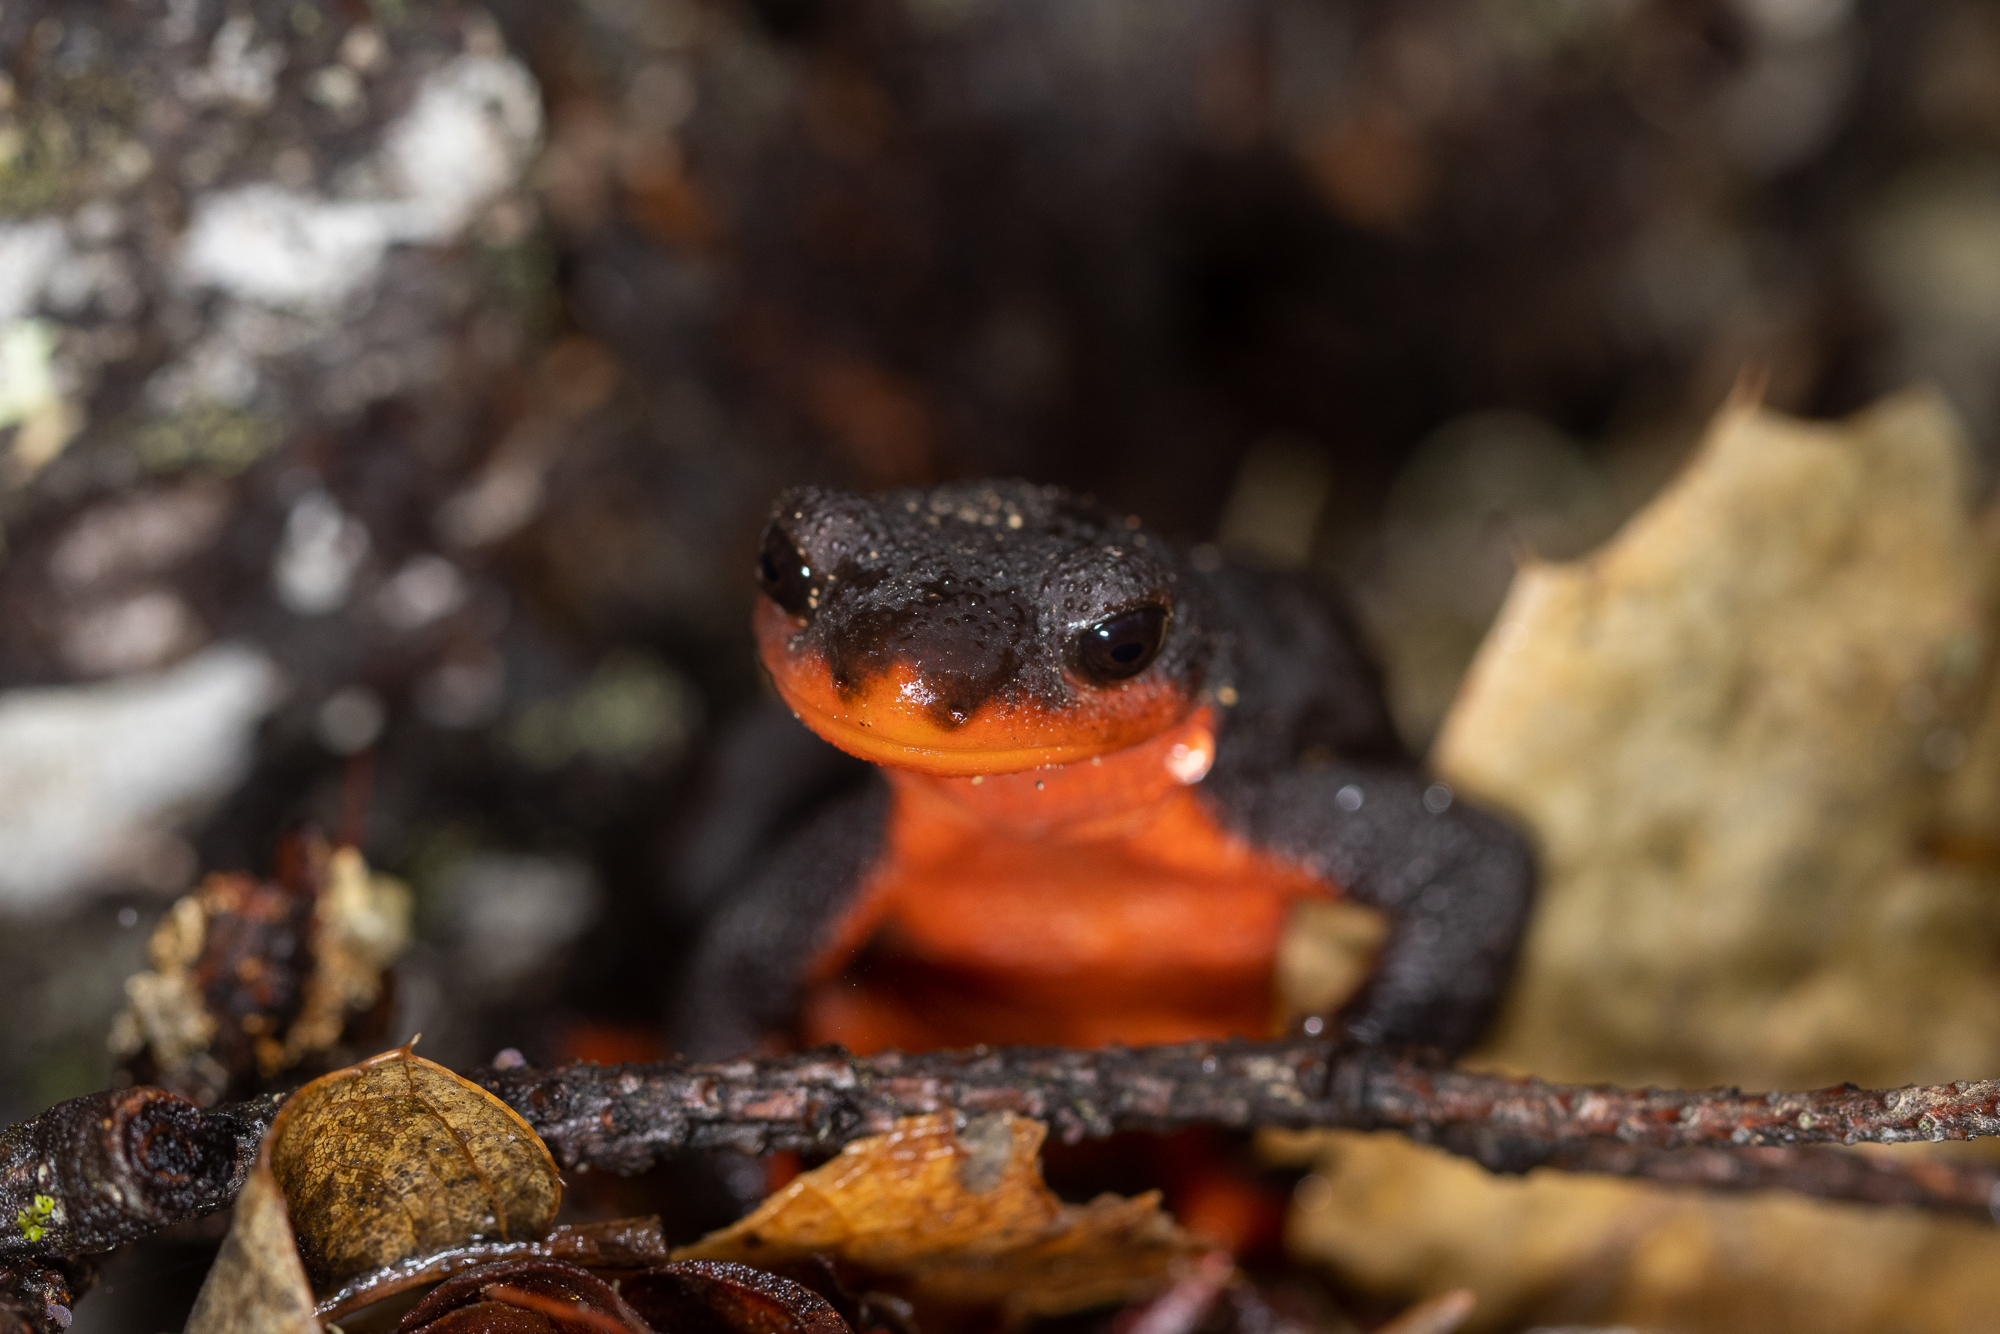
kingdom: Animalia
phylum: Chordata
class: Amphibia
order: Caudata
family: Salamandridae
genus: Taricha
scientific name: Taricha rivularis
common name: Red-bellied newt
